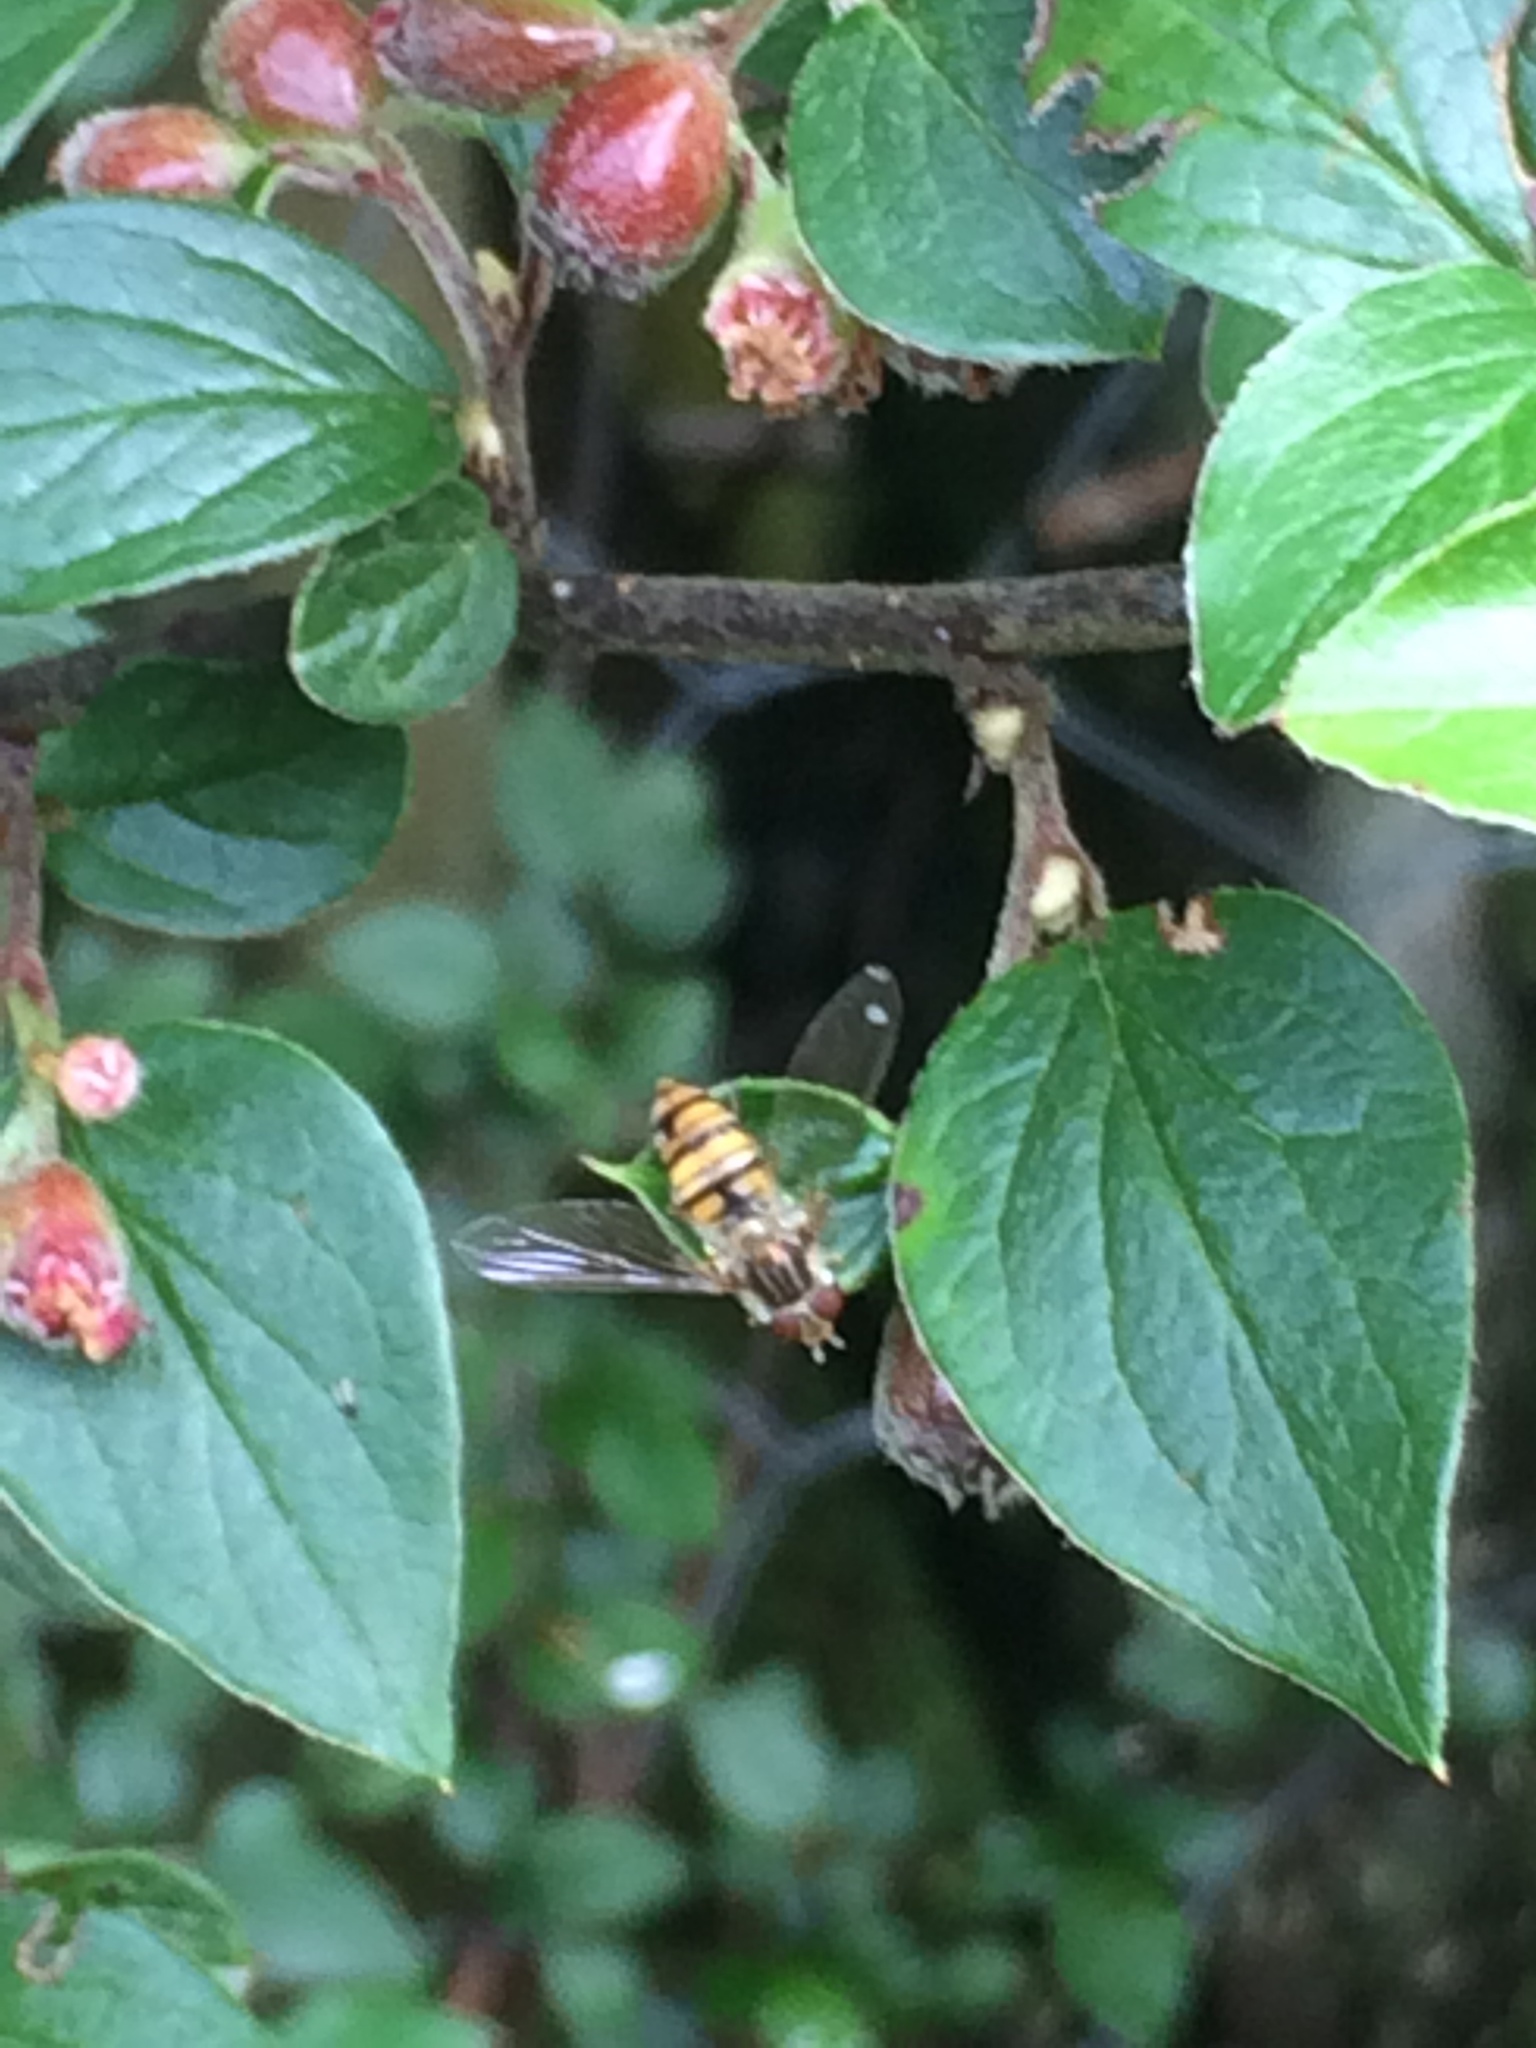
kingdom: Animalia
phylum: Arthropoda
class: Insecta
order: Diptera
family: Syrphidae
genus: Episyrphus
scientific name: Episyrphus balteatus
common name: Marmalade hoverfly
